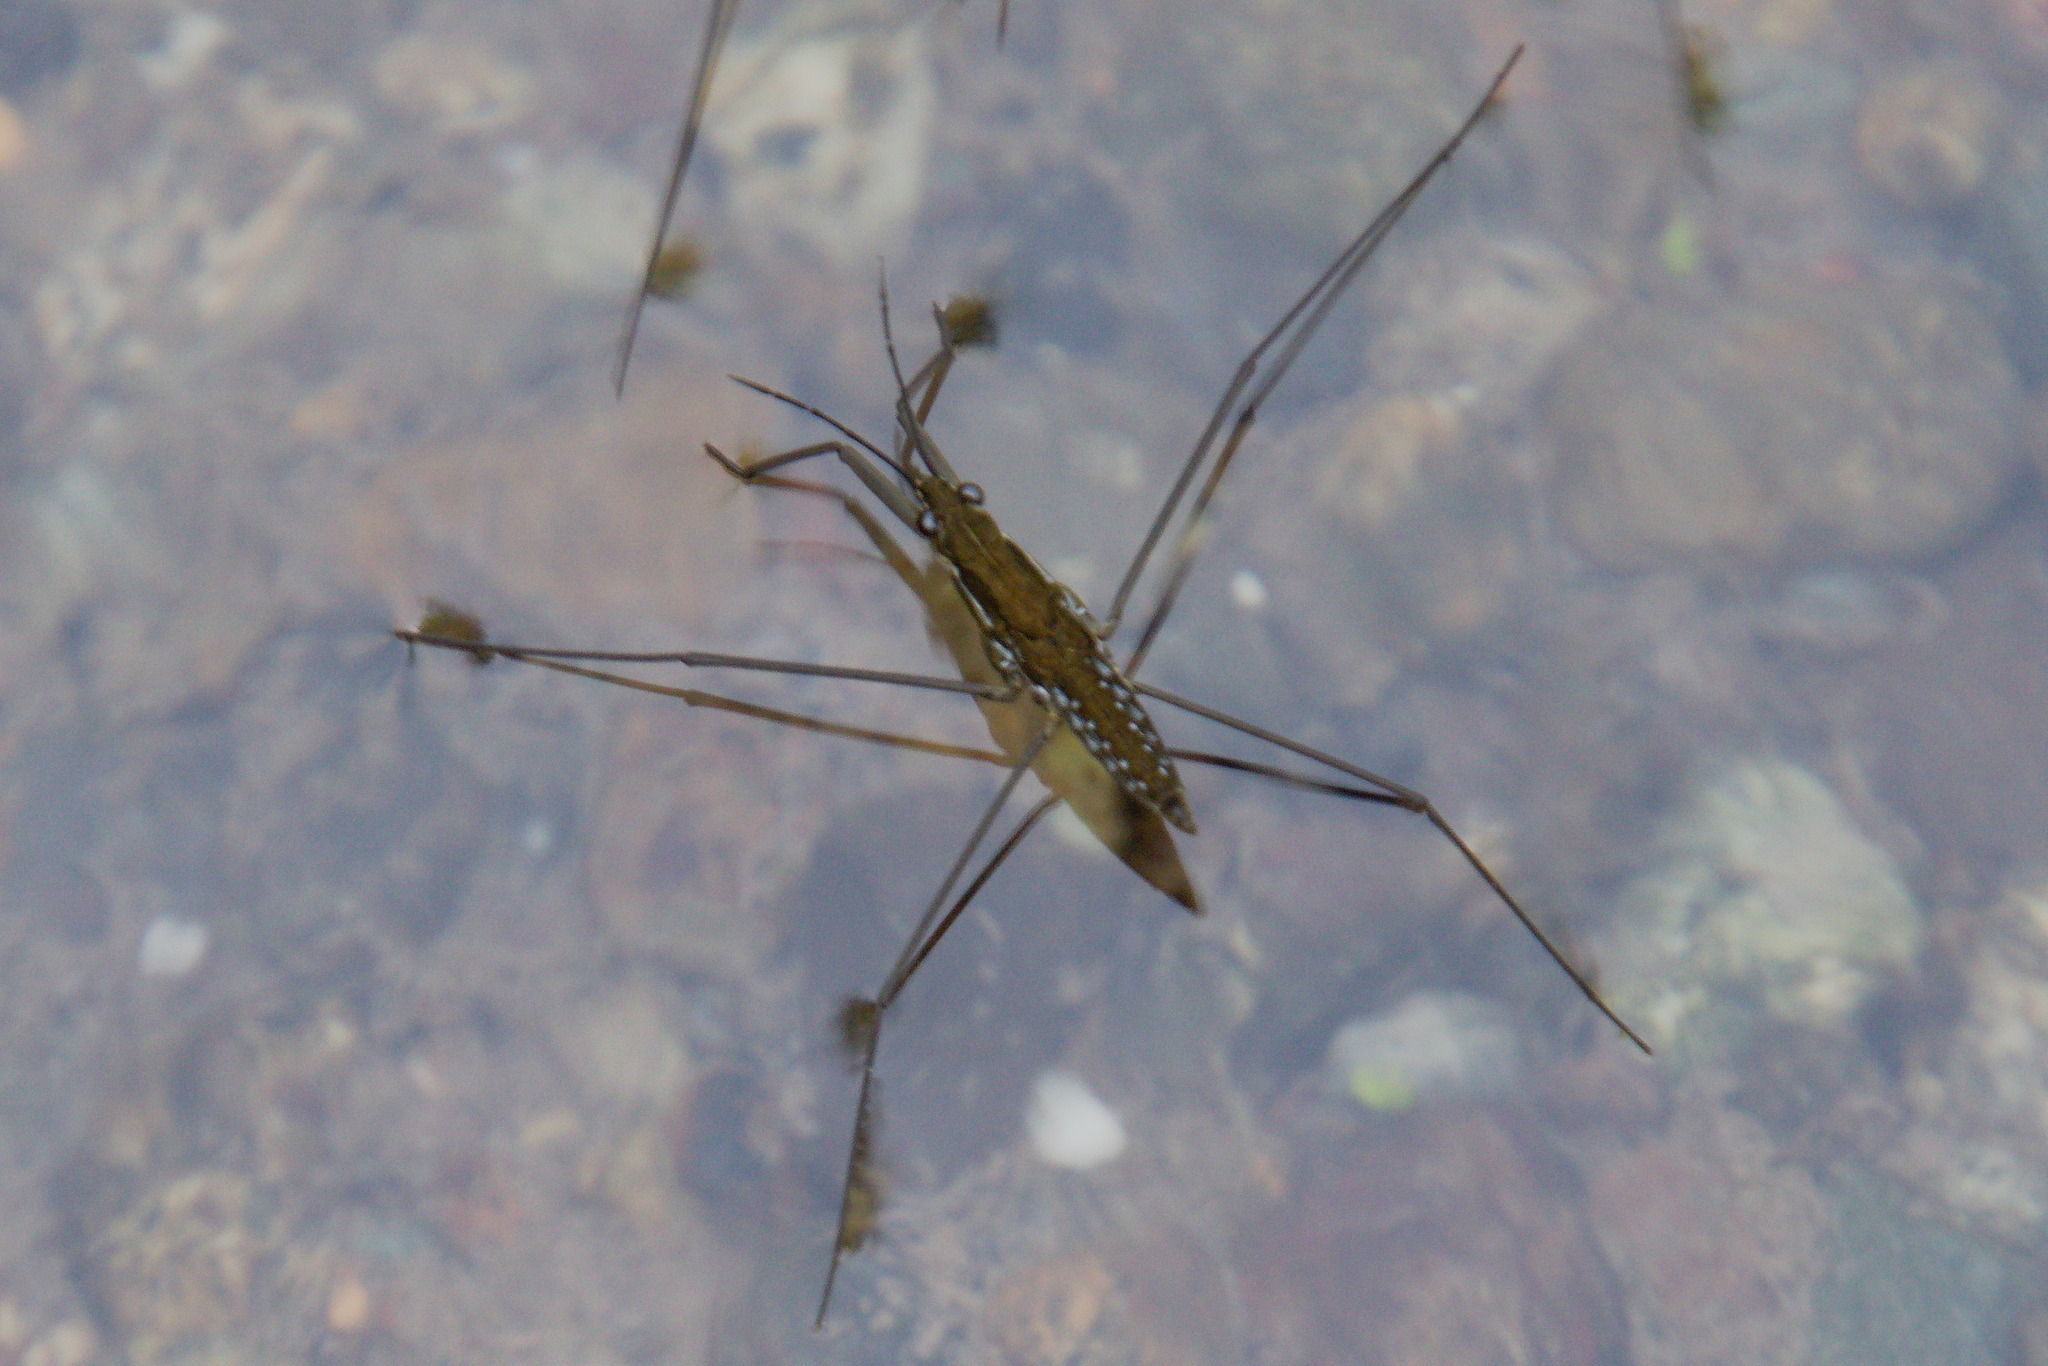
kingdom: Animalia
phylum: Arthropoda
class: Insecta
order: Hemiptera
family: Gerridae
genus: Aquarius
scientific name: Aquarius chilensis
